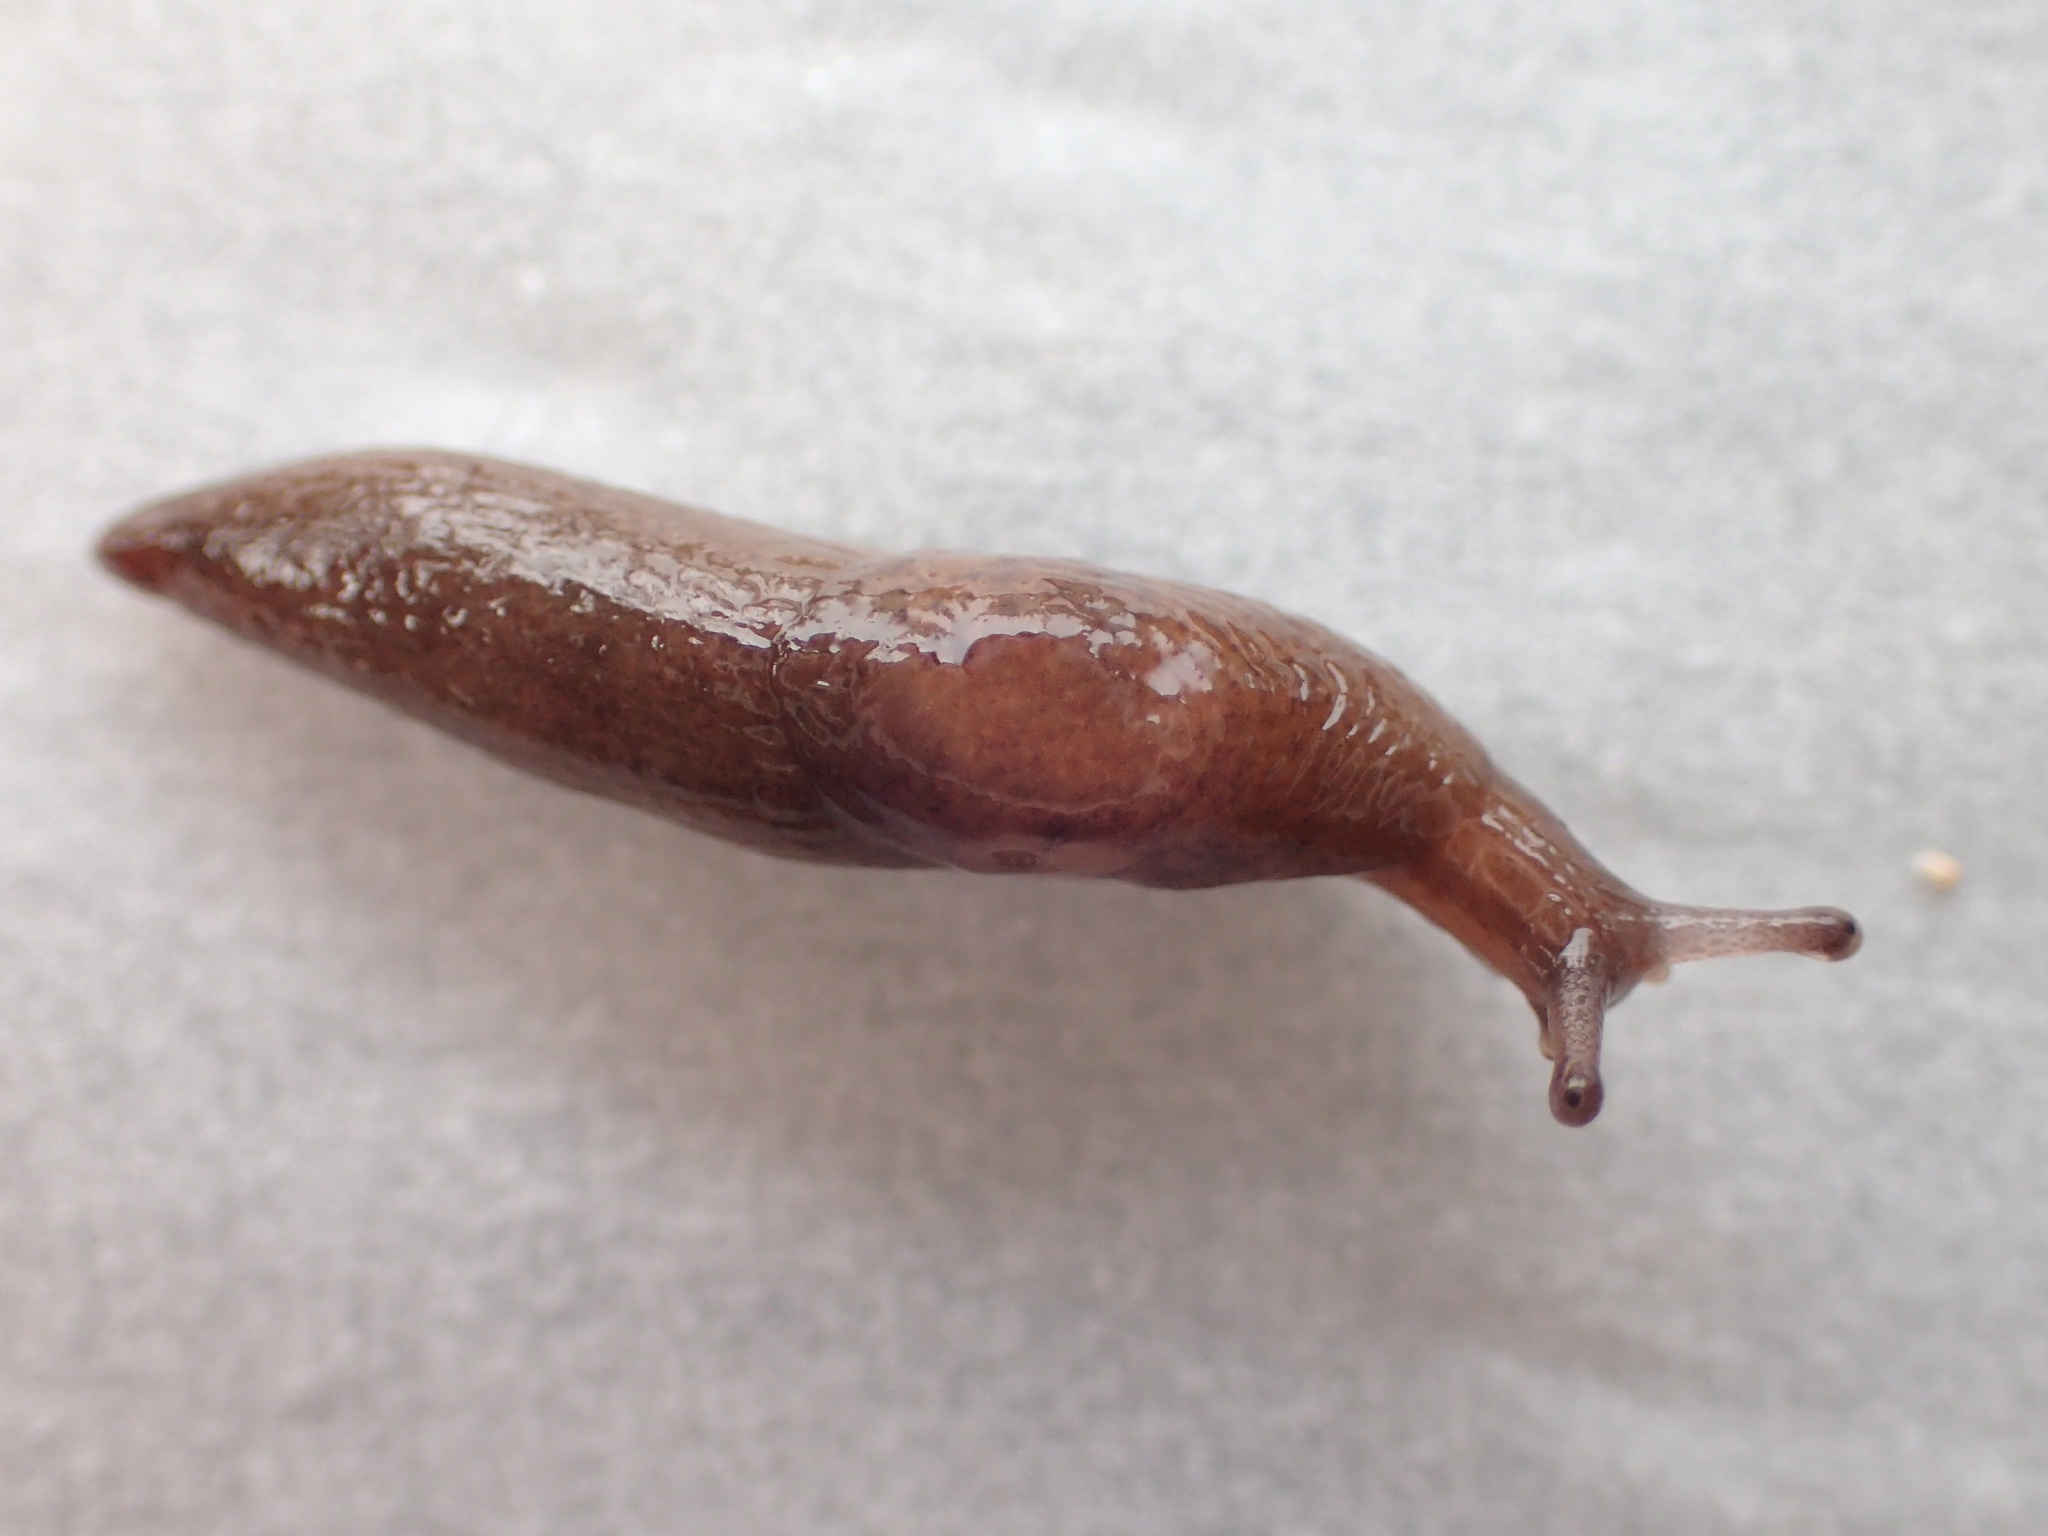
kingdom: Animalia
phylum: Mollusca
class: Gastropoda
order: Stylommatophora
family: Agriolimacidae
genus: Deroceras
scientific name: Deroceras laeve
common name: Marsh slug
